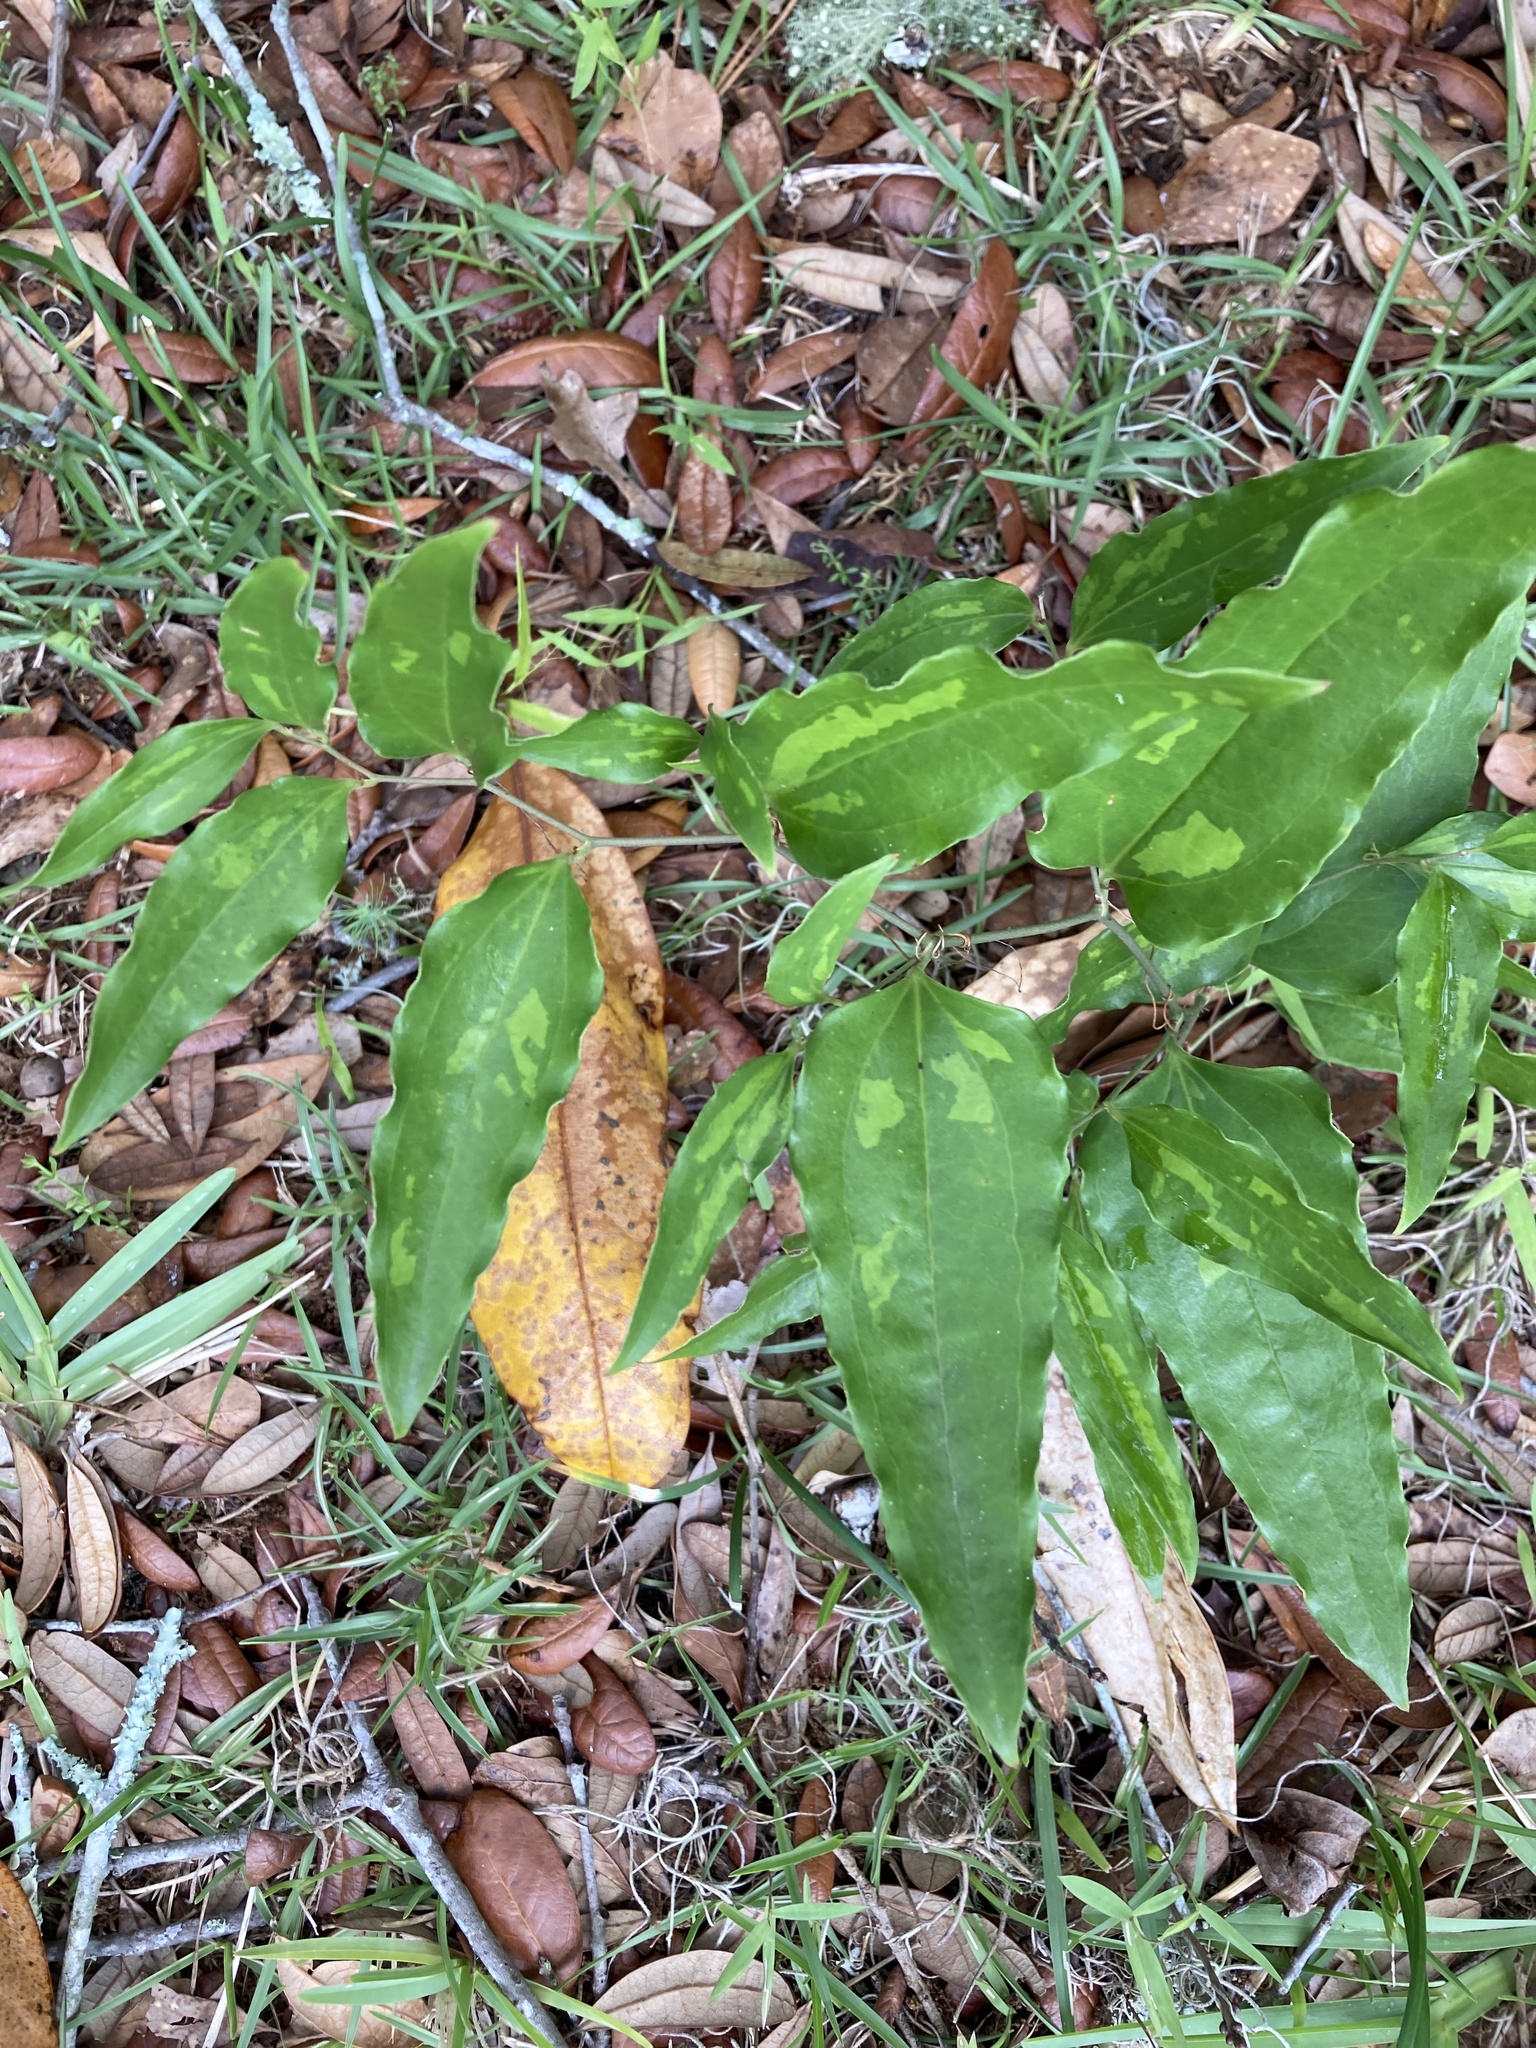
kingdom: Plantae
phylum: Tracheophyta
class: Liliopsida
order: Liliales
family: Smilacaceae
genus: Smilax
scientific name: Smilax maritima
